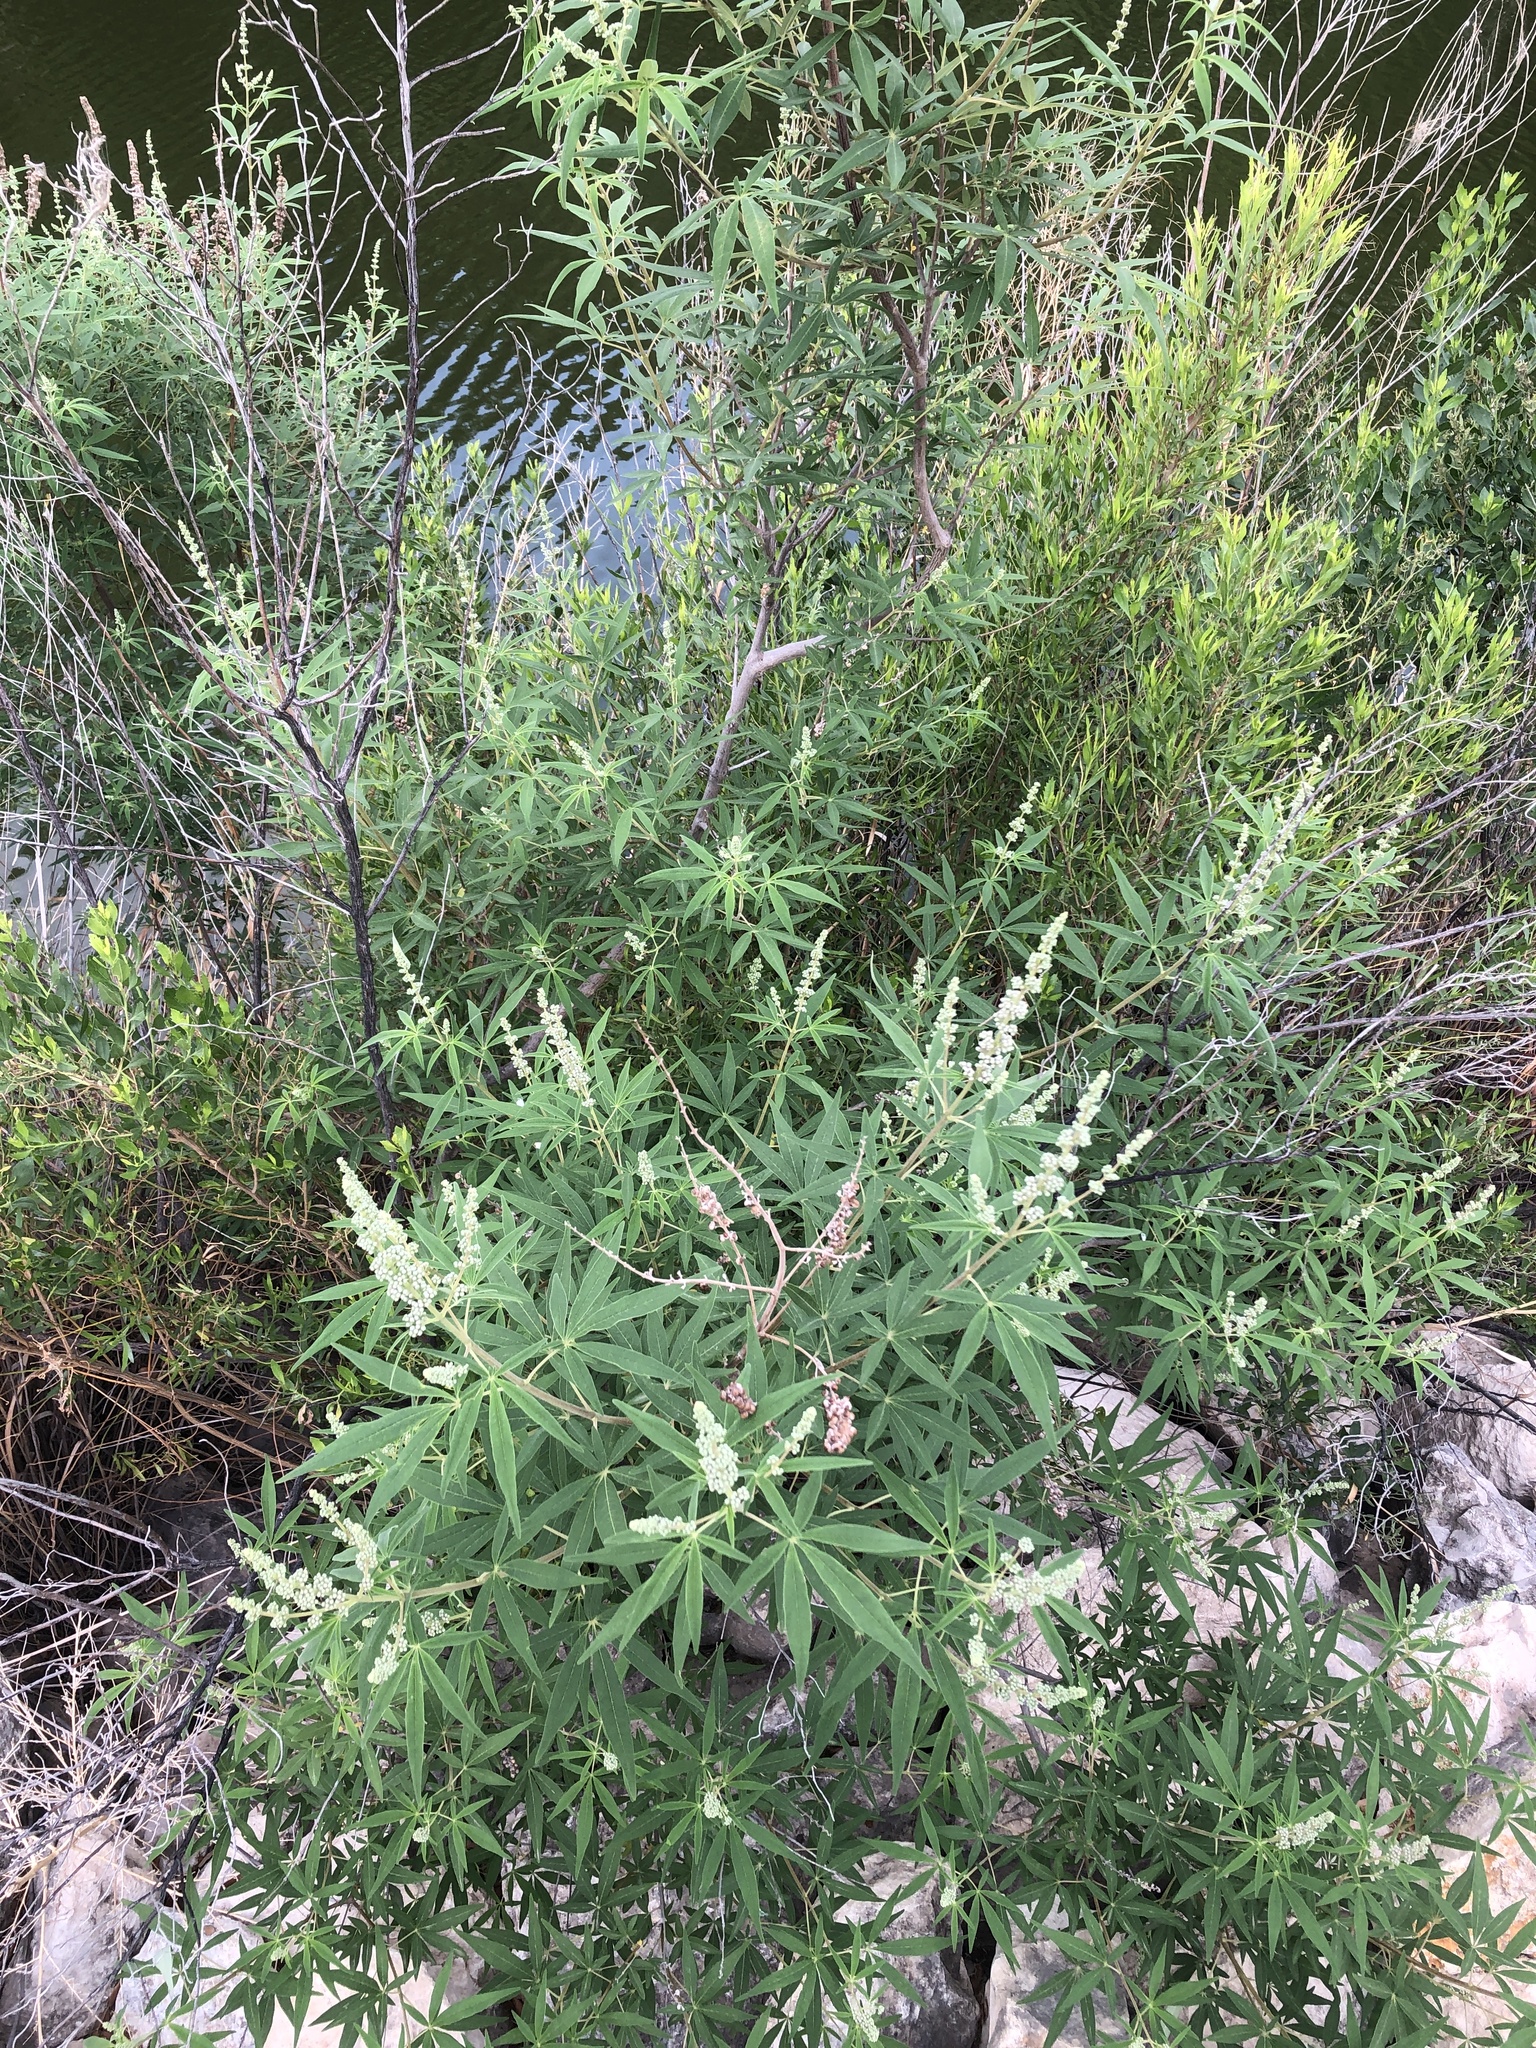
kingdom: Plantae
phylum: Tracheophyta
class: Magnoliopsida
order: Lamiales
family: Lamiaceae
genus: Vitex
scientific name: Vitex agnus-castus
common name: Chasteberry
